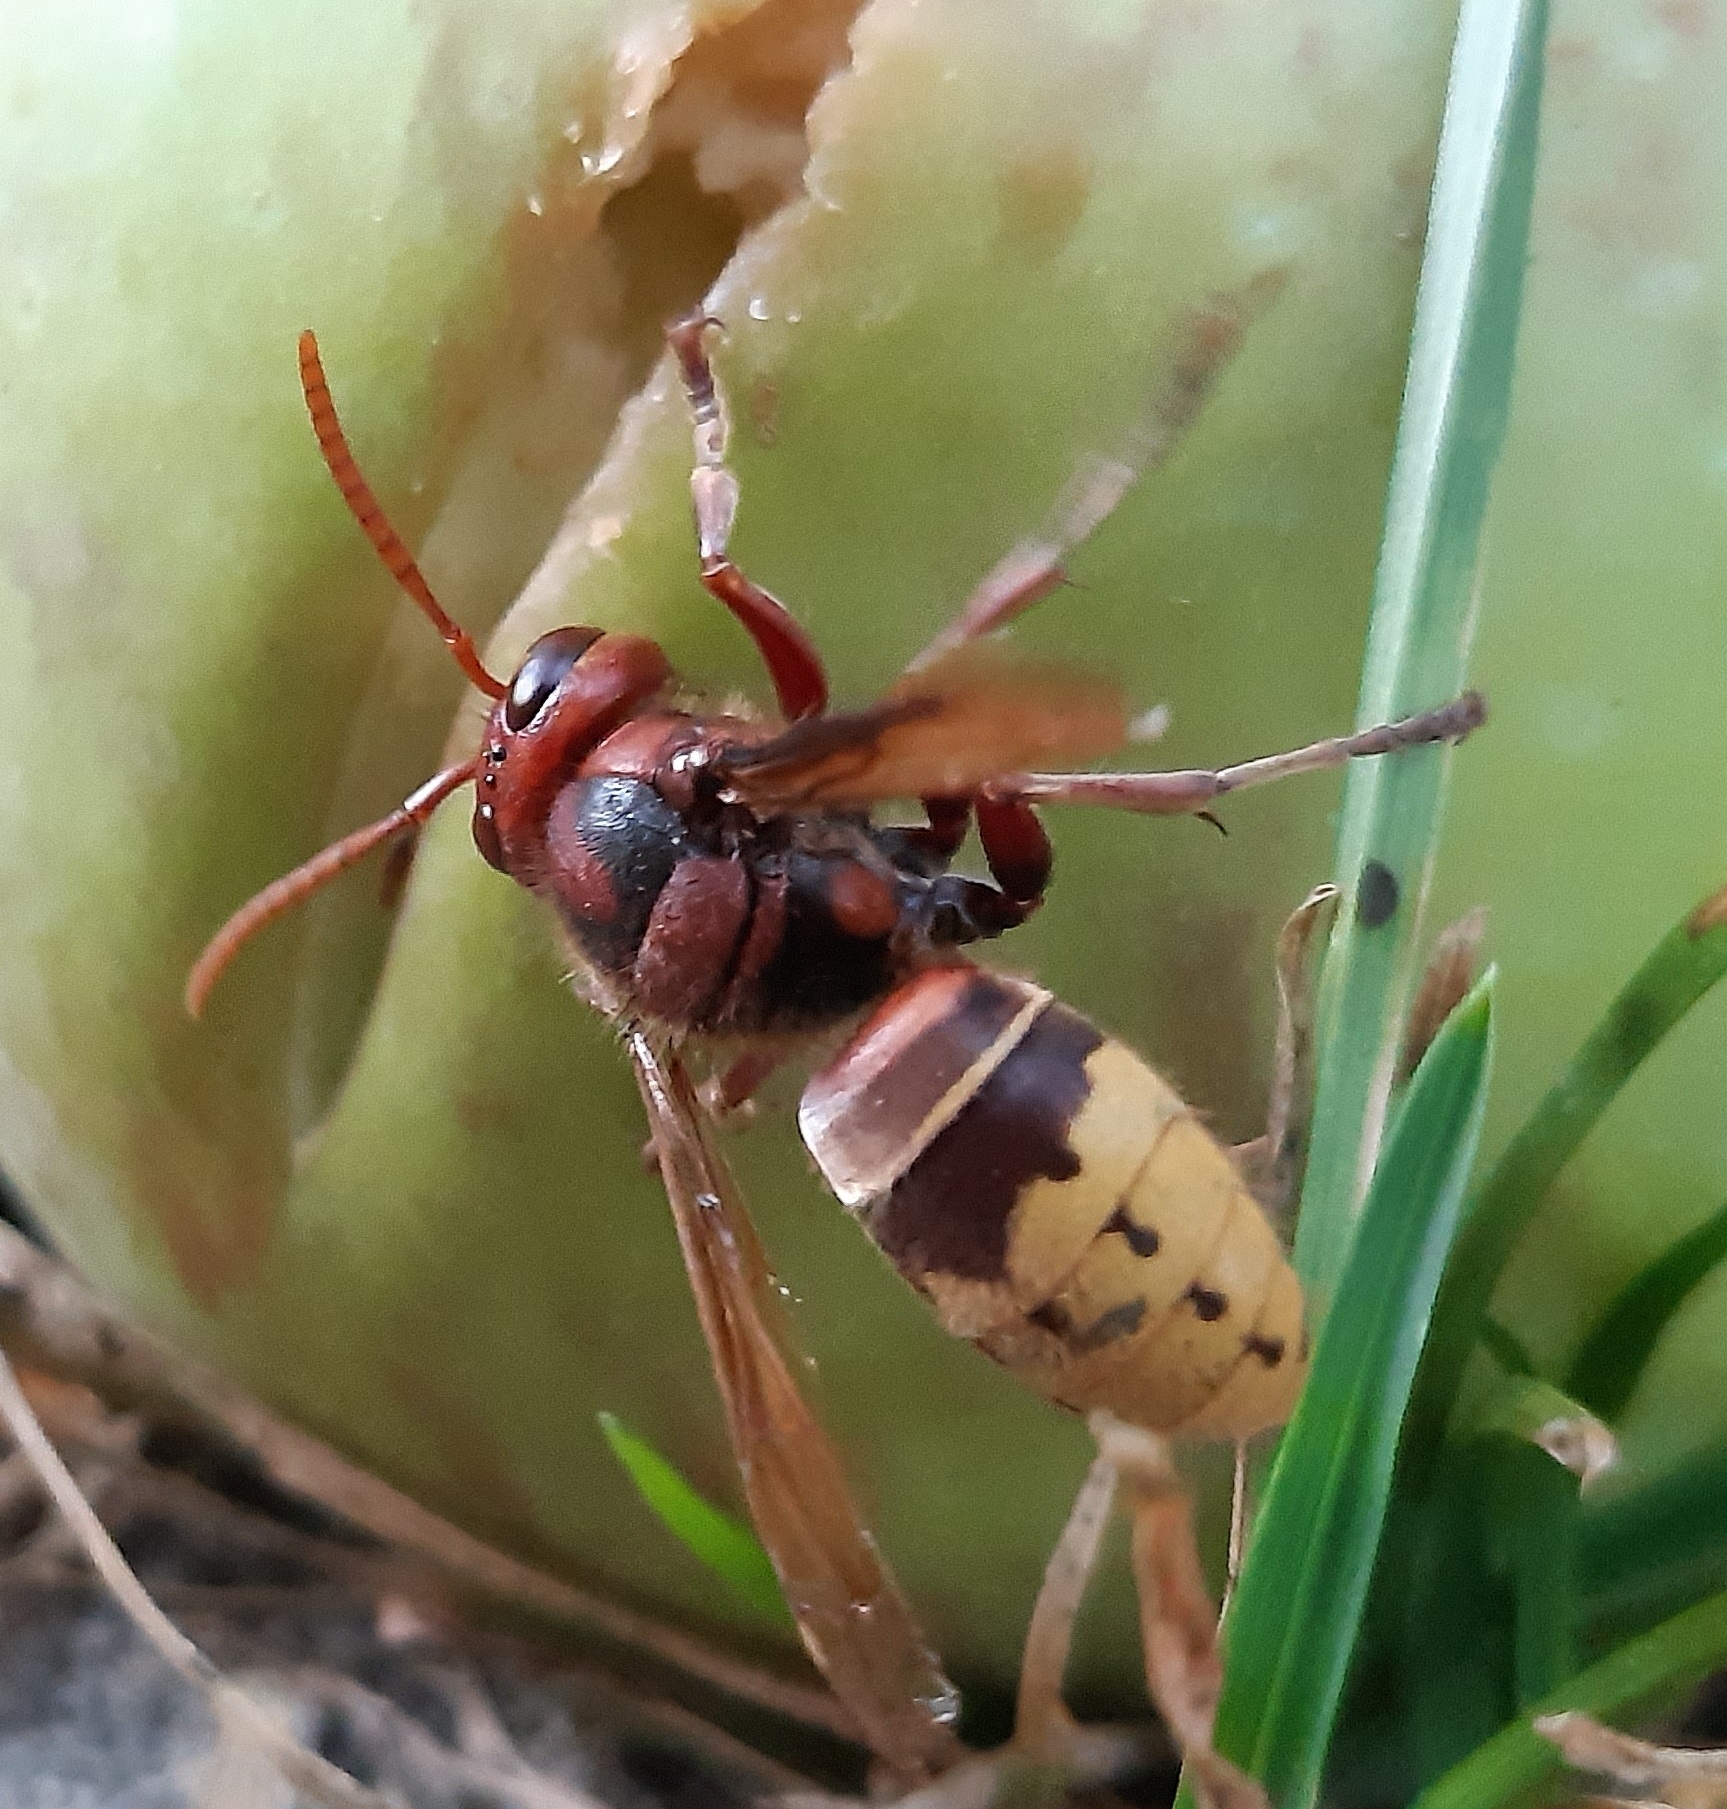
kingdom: Animalia
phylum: Arthropoda
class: Insecta
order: Hymenoptera
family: Vespidae
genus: Vespa
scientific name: Vespa crabro
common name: Hornet
